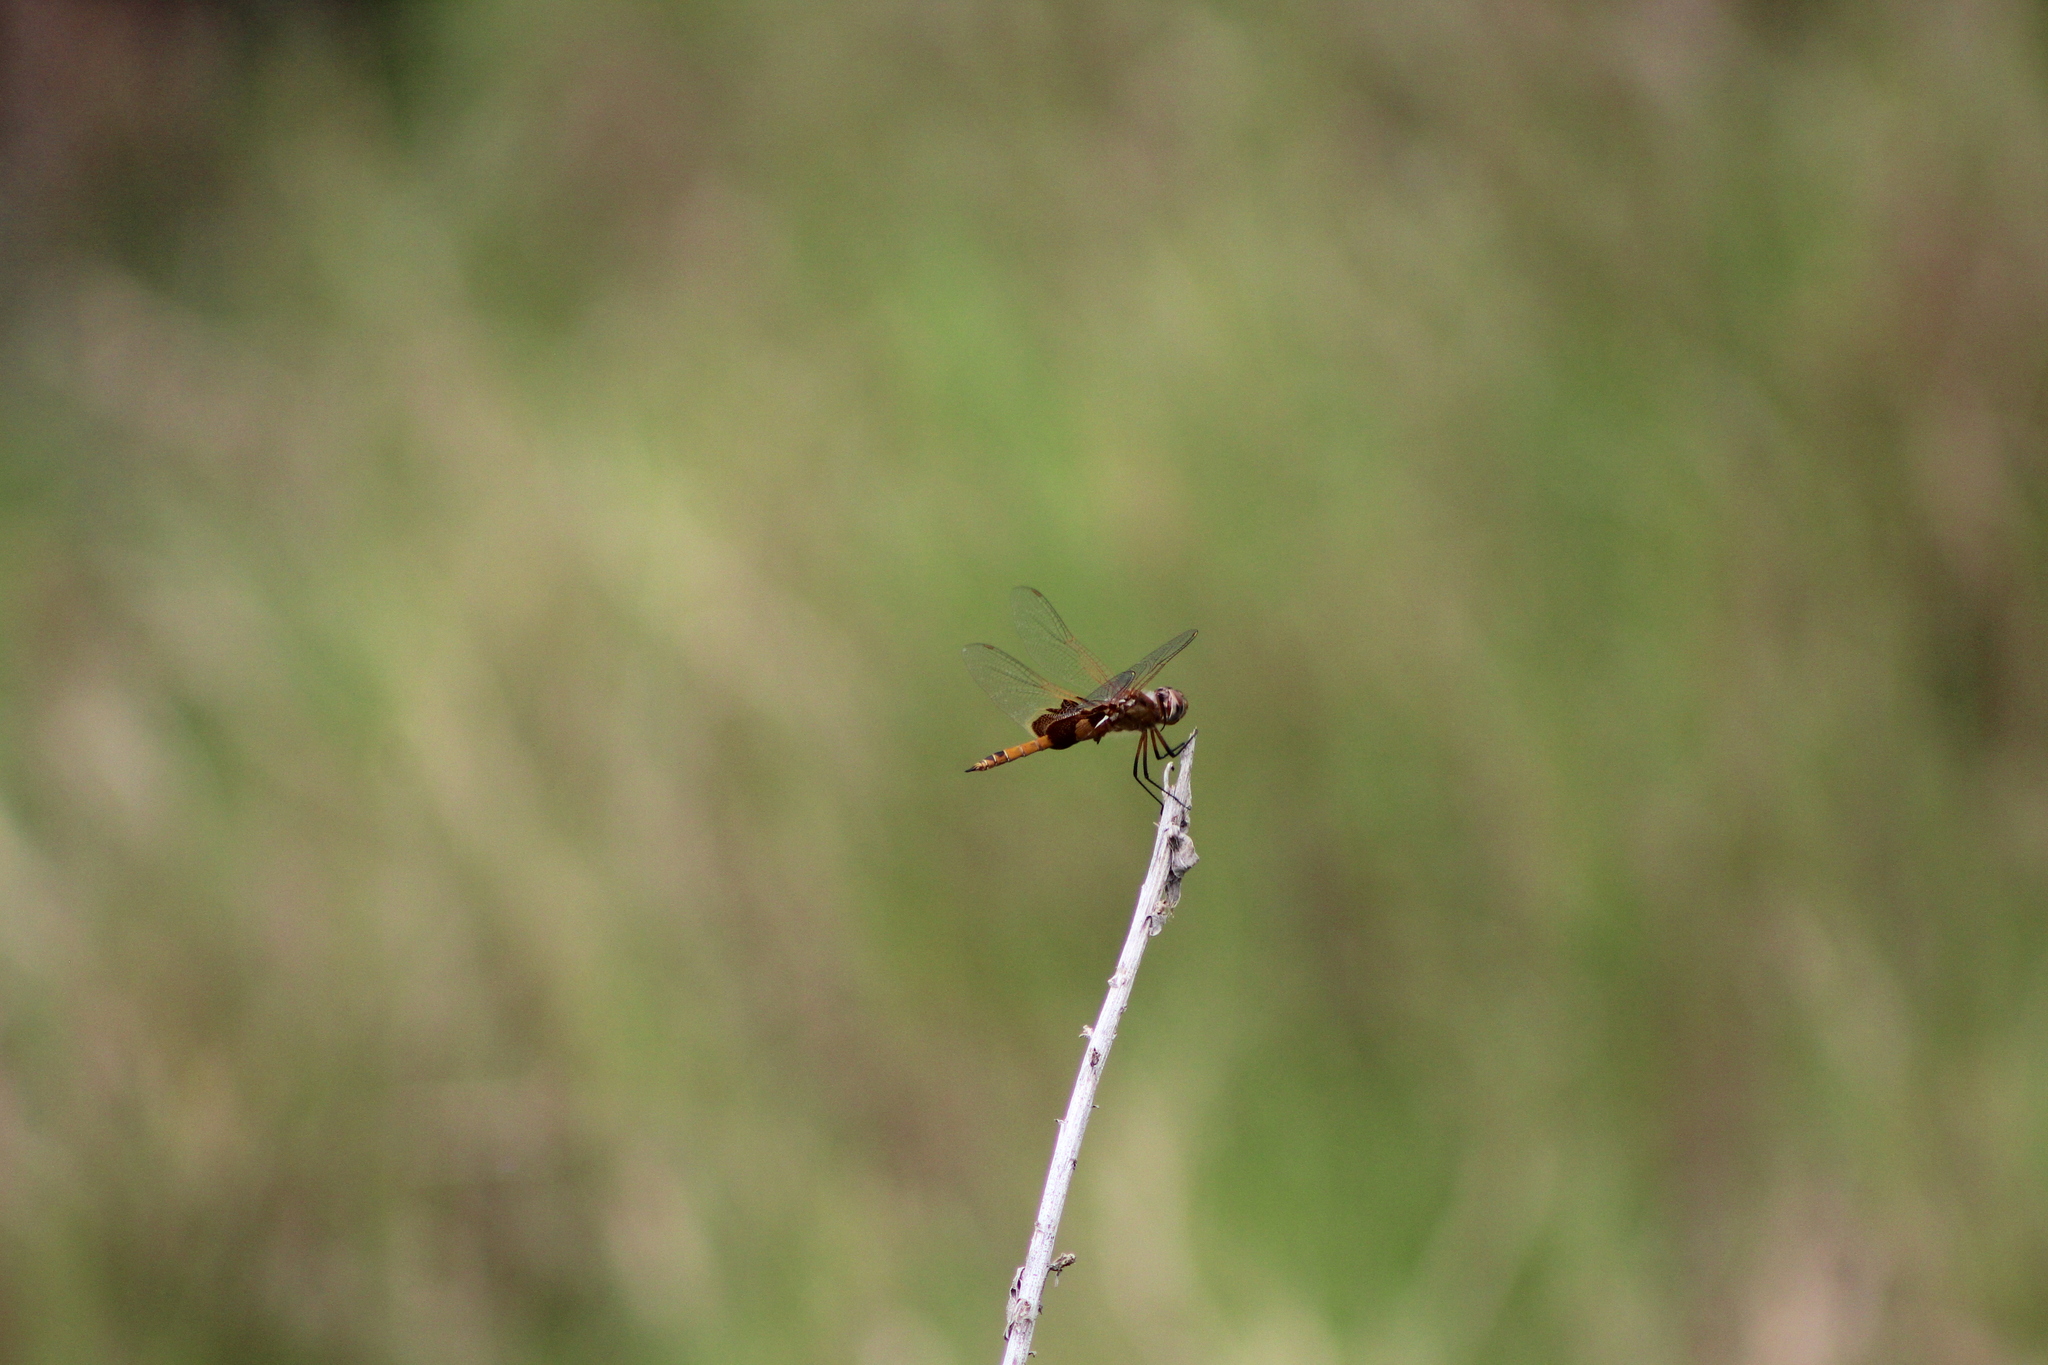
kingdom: Animalia
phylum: Arthropoda
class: Insecta
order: Odonata
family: Libellulidae
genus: Tramea
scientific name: Tramea onusta
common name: Red saddlebags
